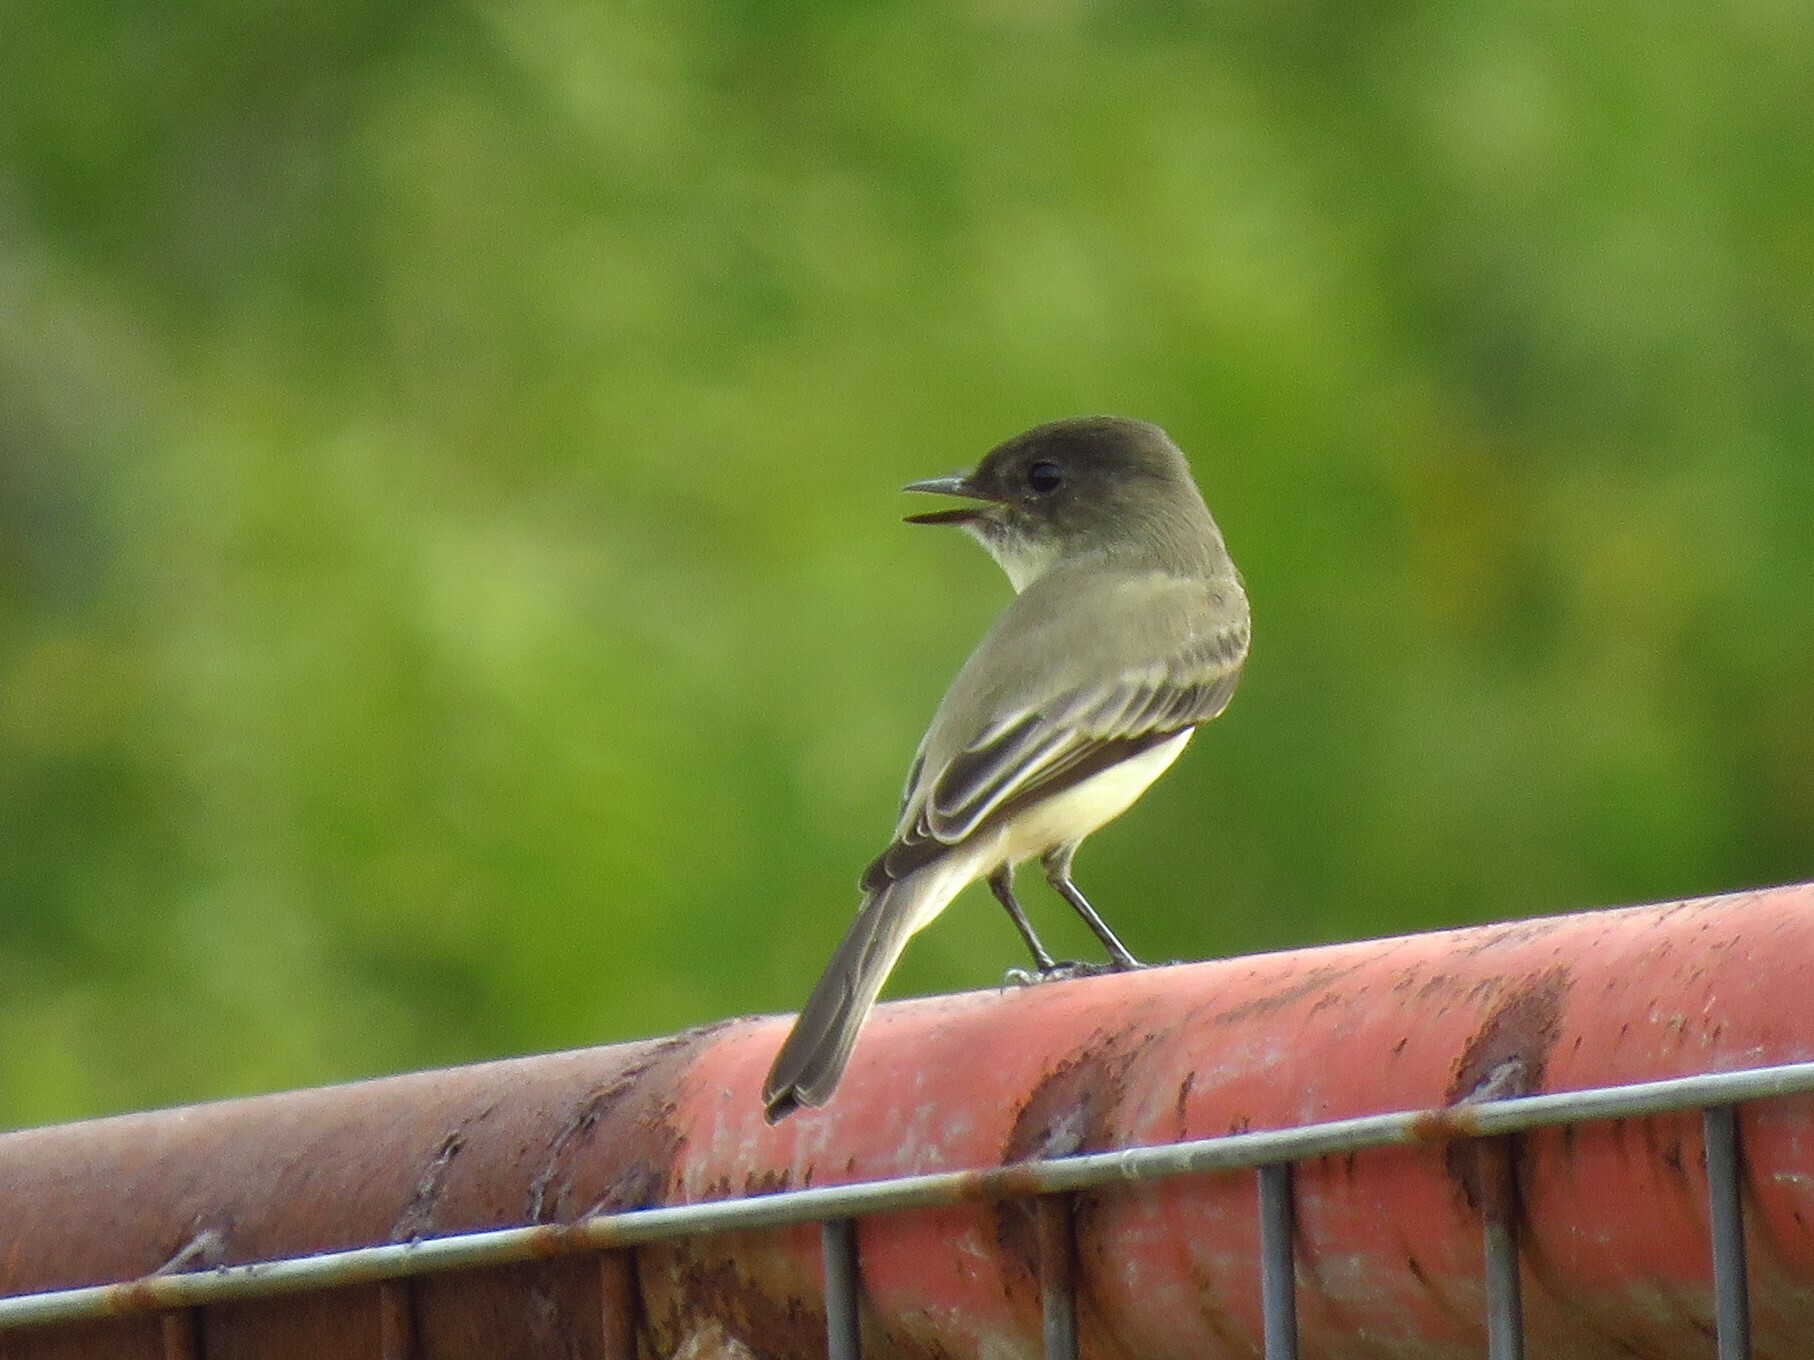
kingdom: Animalia
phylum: Chordata
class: Aves
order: Passeriformes
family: Tyrannidae
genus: Sayornis
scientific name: Sayornis phoebe
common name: Eastern phoebe
